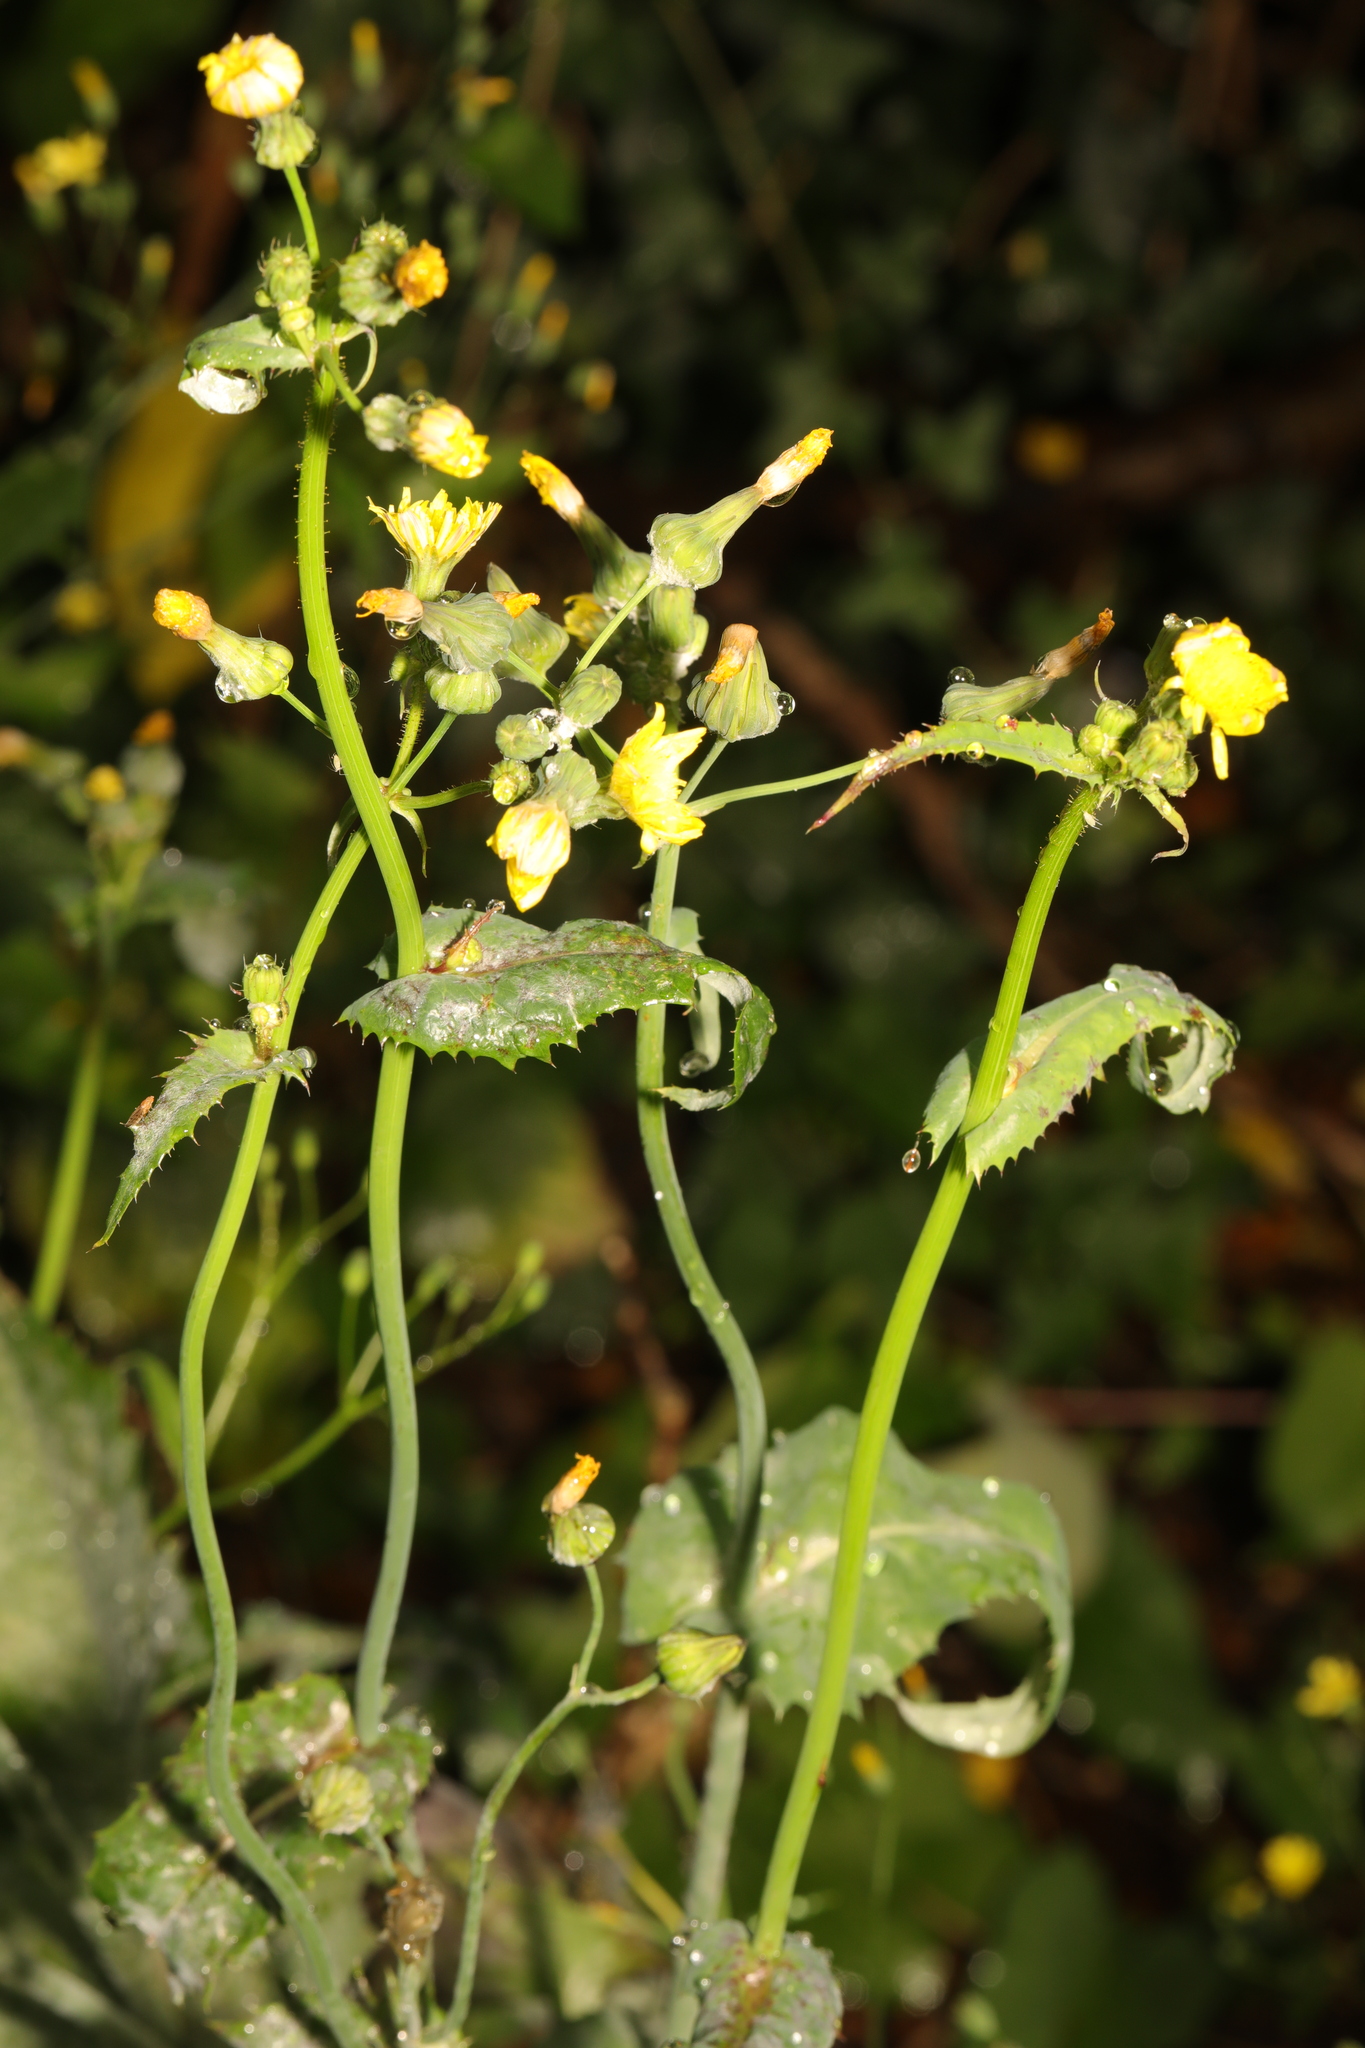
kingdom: Plantae
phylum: Tracheophyta
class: Magnoliopsida
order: Asterales
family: Asteraceae
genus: Sonchus
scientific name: Sonchus oleraceus
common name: Common sowthistle
